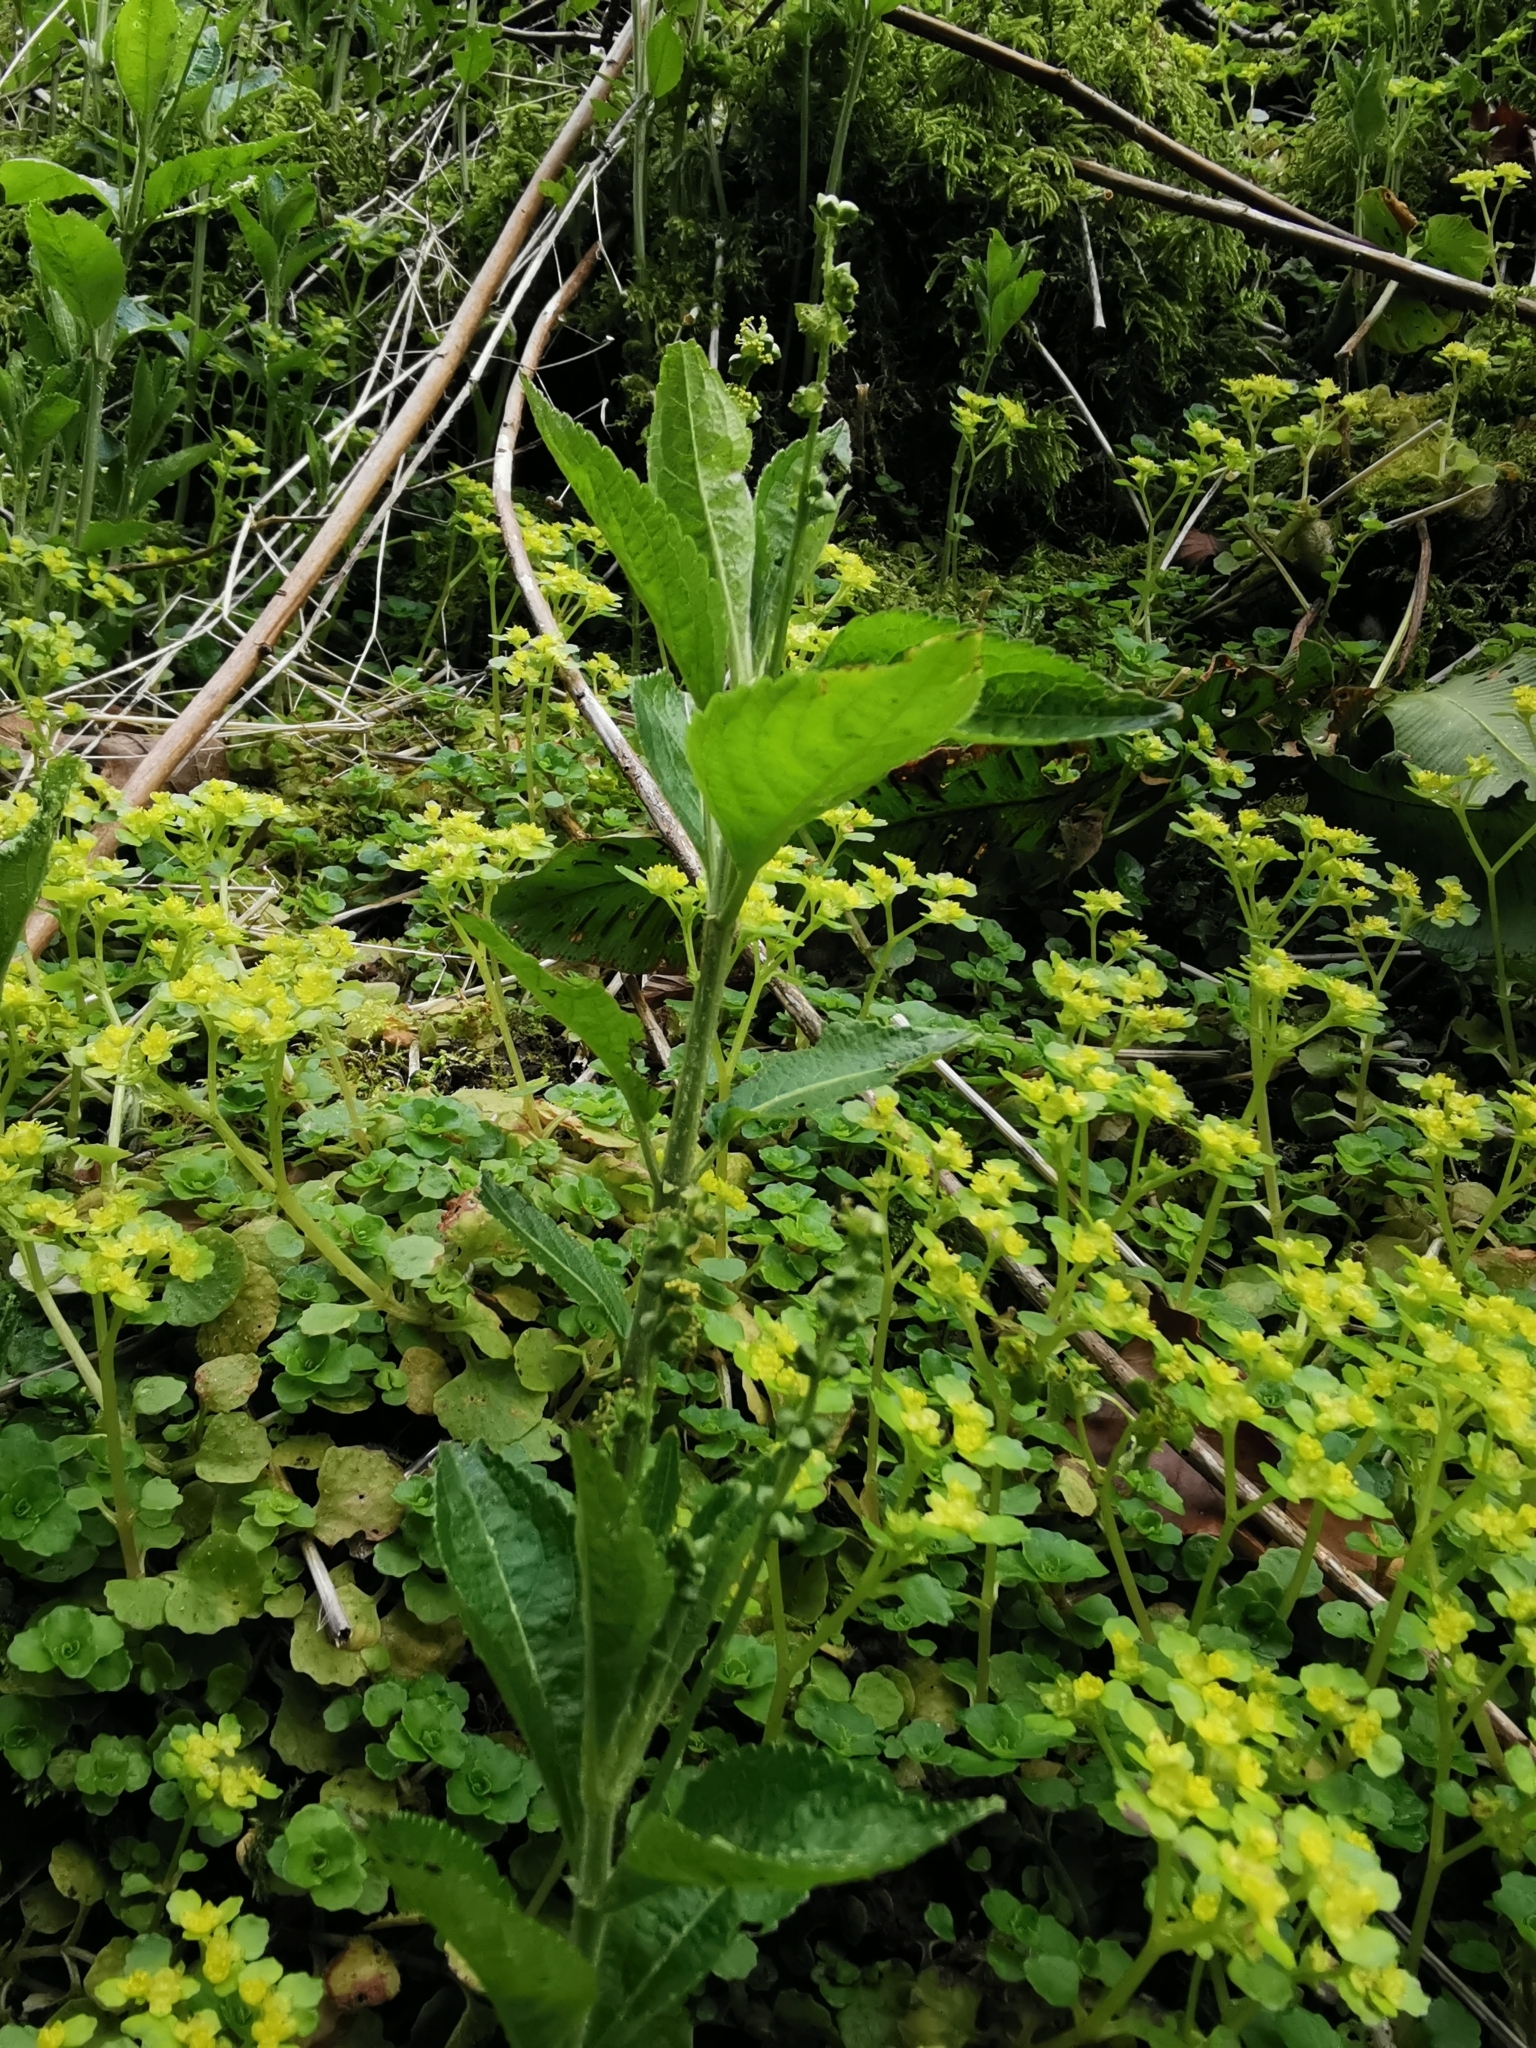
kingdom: Plantae
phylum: Tracheophyta
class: Magnoliopsida
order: Malpighiales
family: Euphorbiaceae
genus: Mercurialis
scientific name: Mercurialis perennis
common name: Dog mercury
